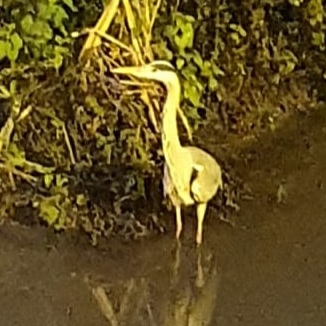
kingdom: Animalia
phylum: Chordata
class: Aves
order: Pelecaniformes
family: Ardeidae
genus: Ardea
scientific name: Ardea cinerea
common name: Grey heron
